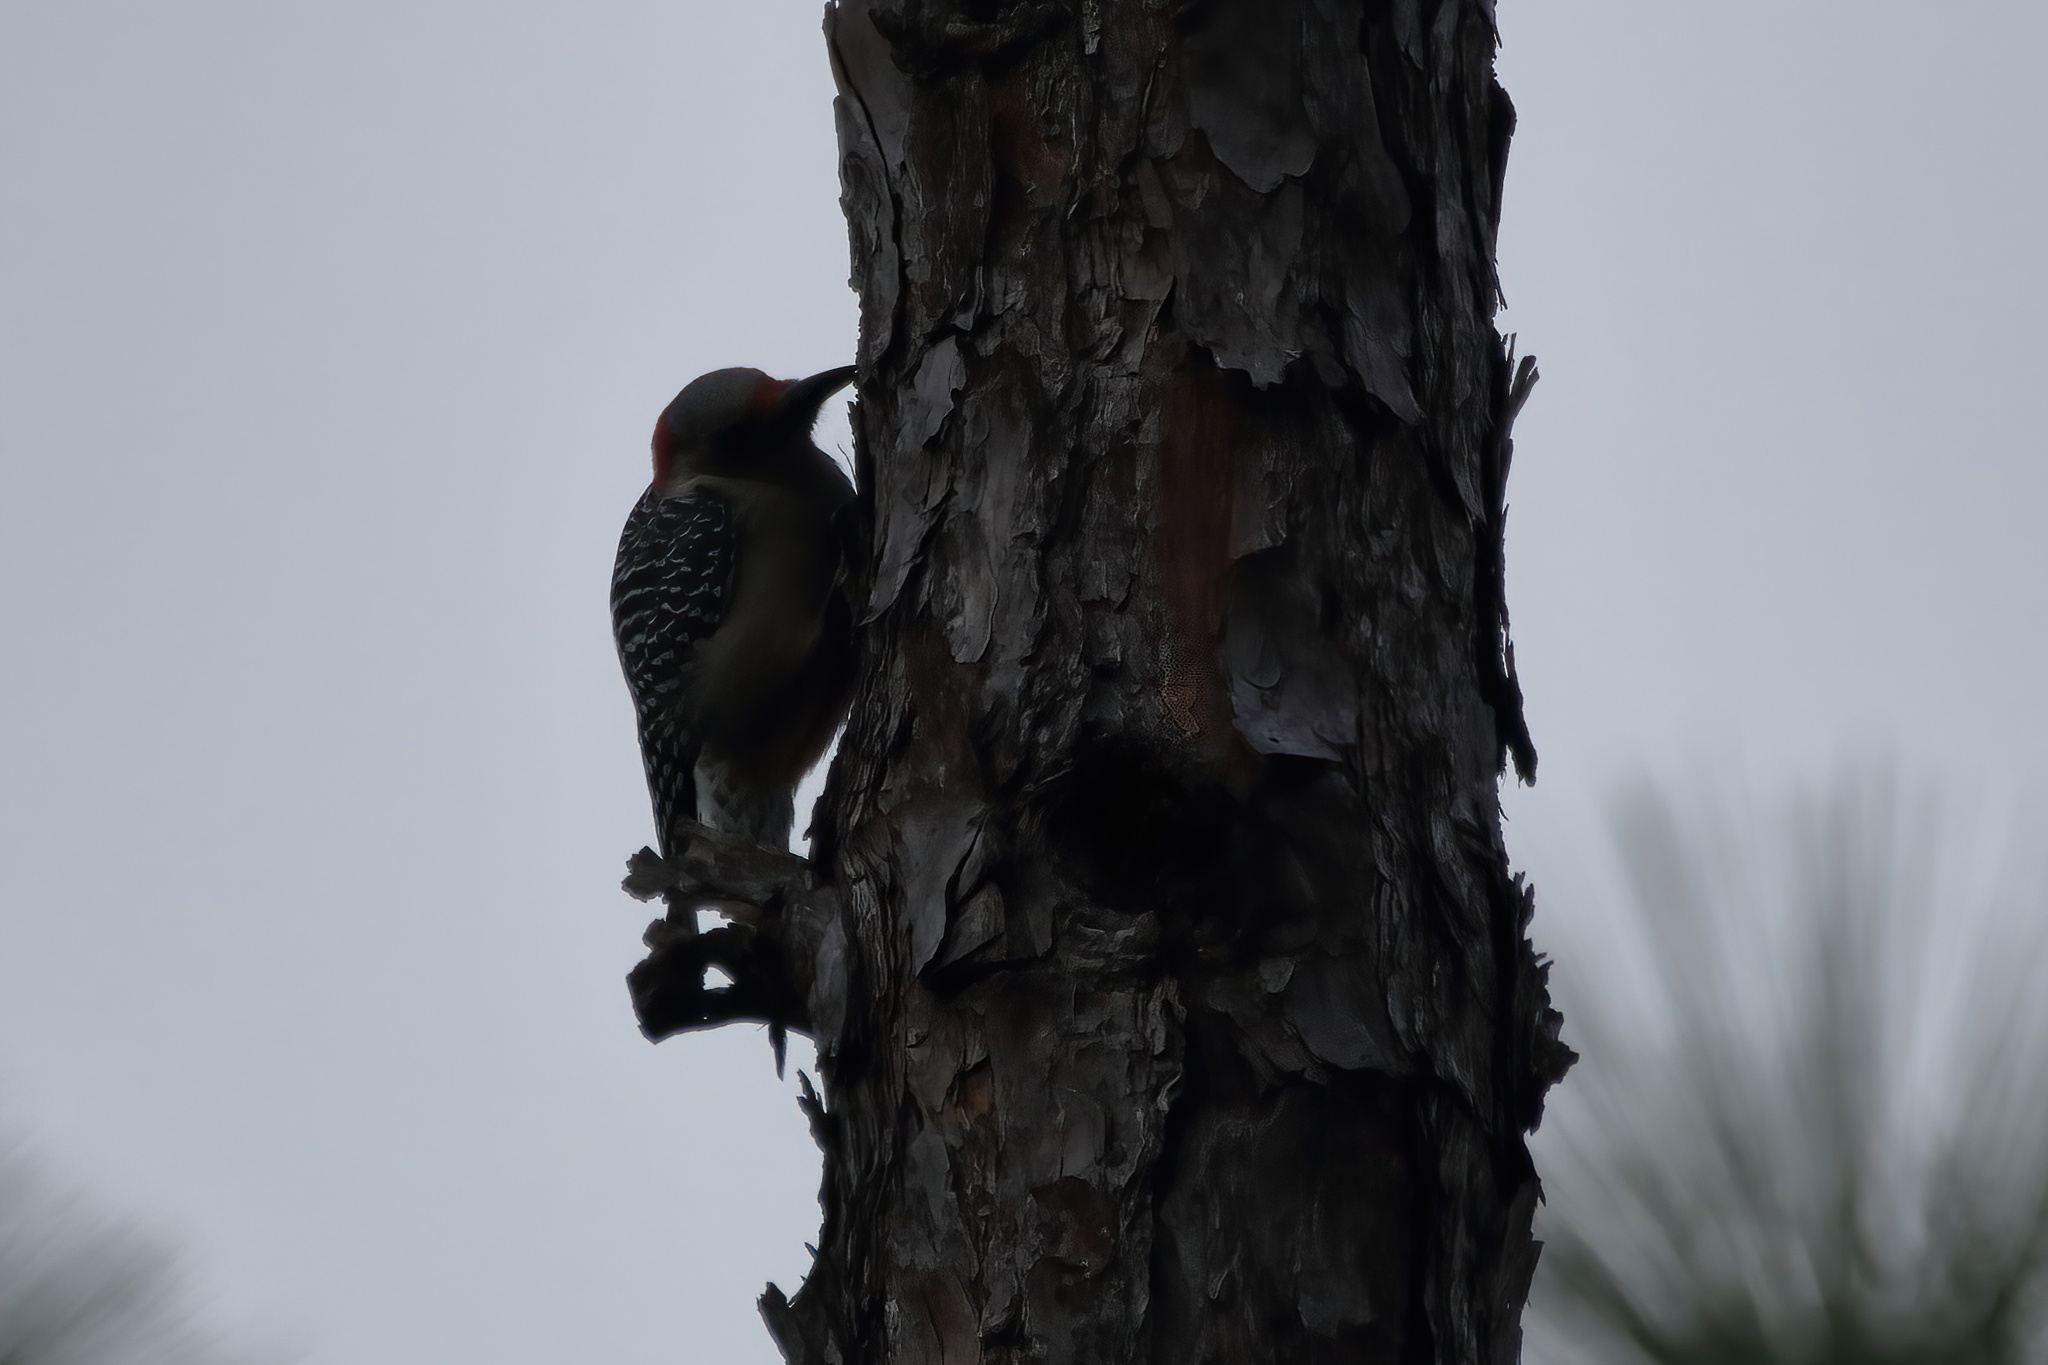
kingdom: Animalia
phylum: Chordata
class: Aves
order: Piciformes
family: Picidae
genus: Melanerpes
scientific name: Melanerpes carolinus
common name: Red-bellied woodpecker
